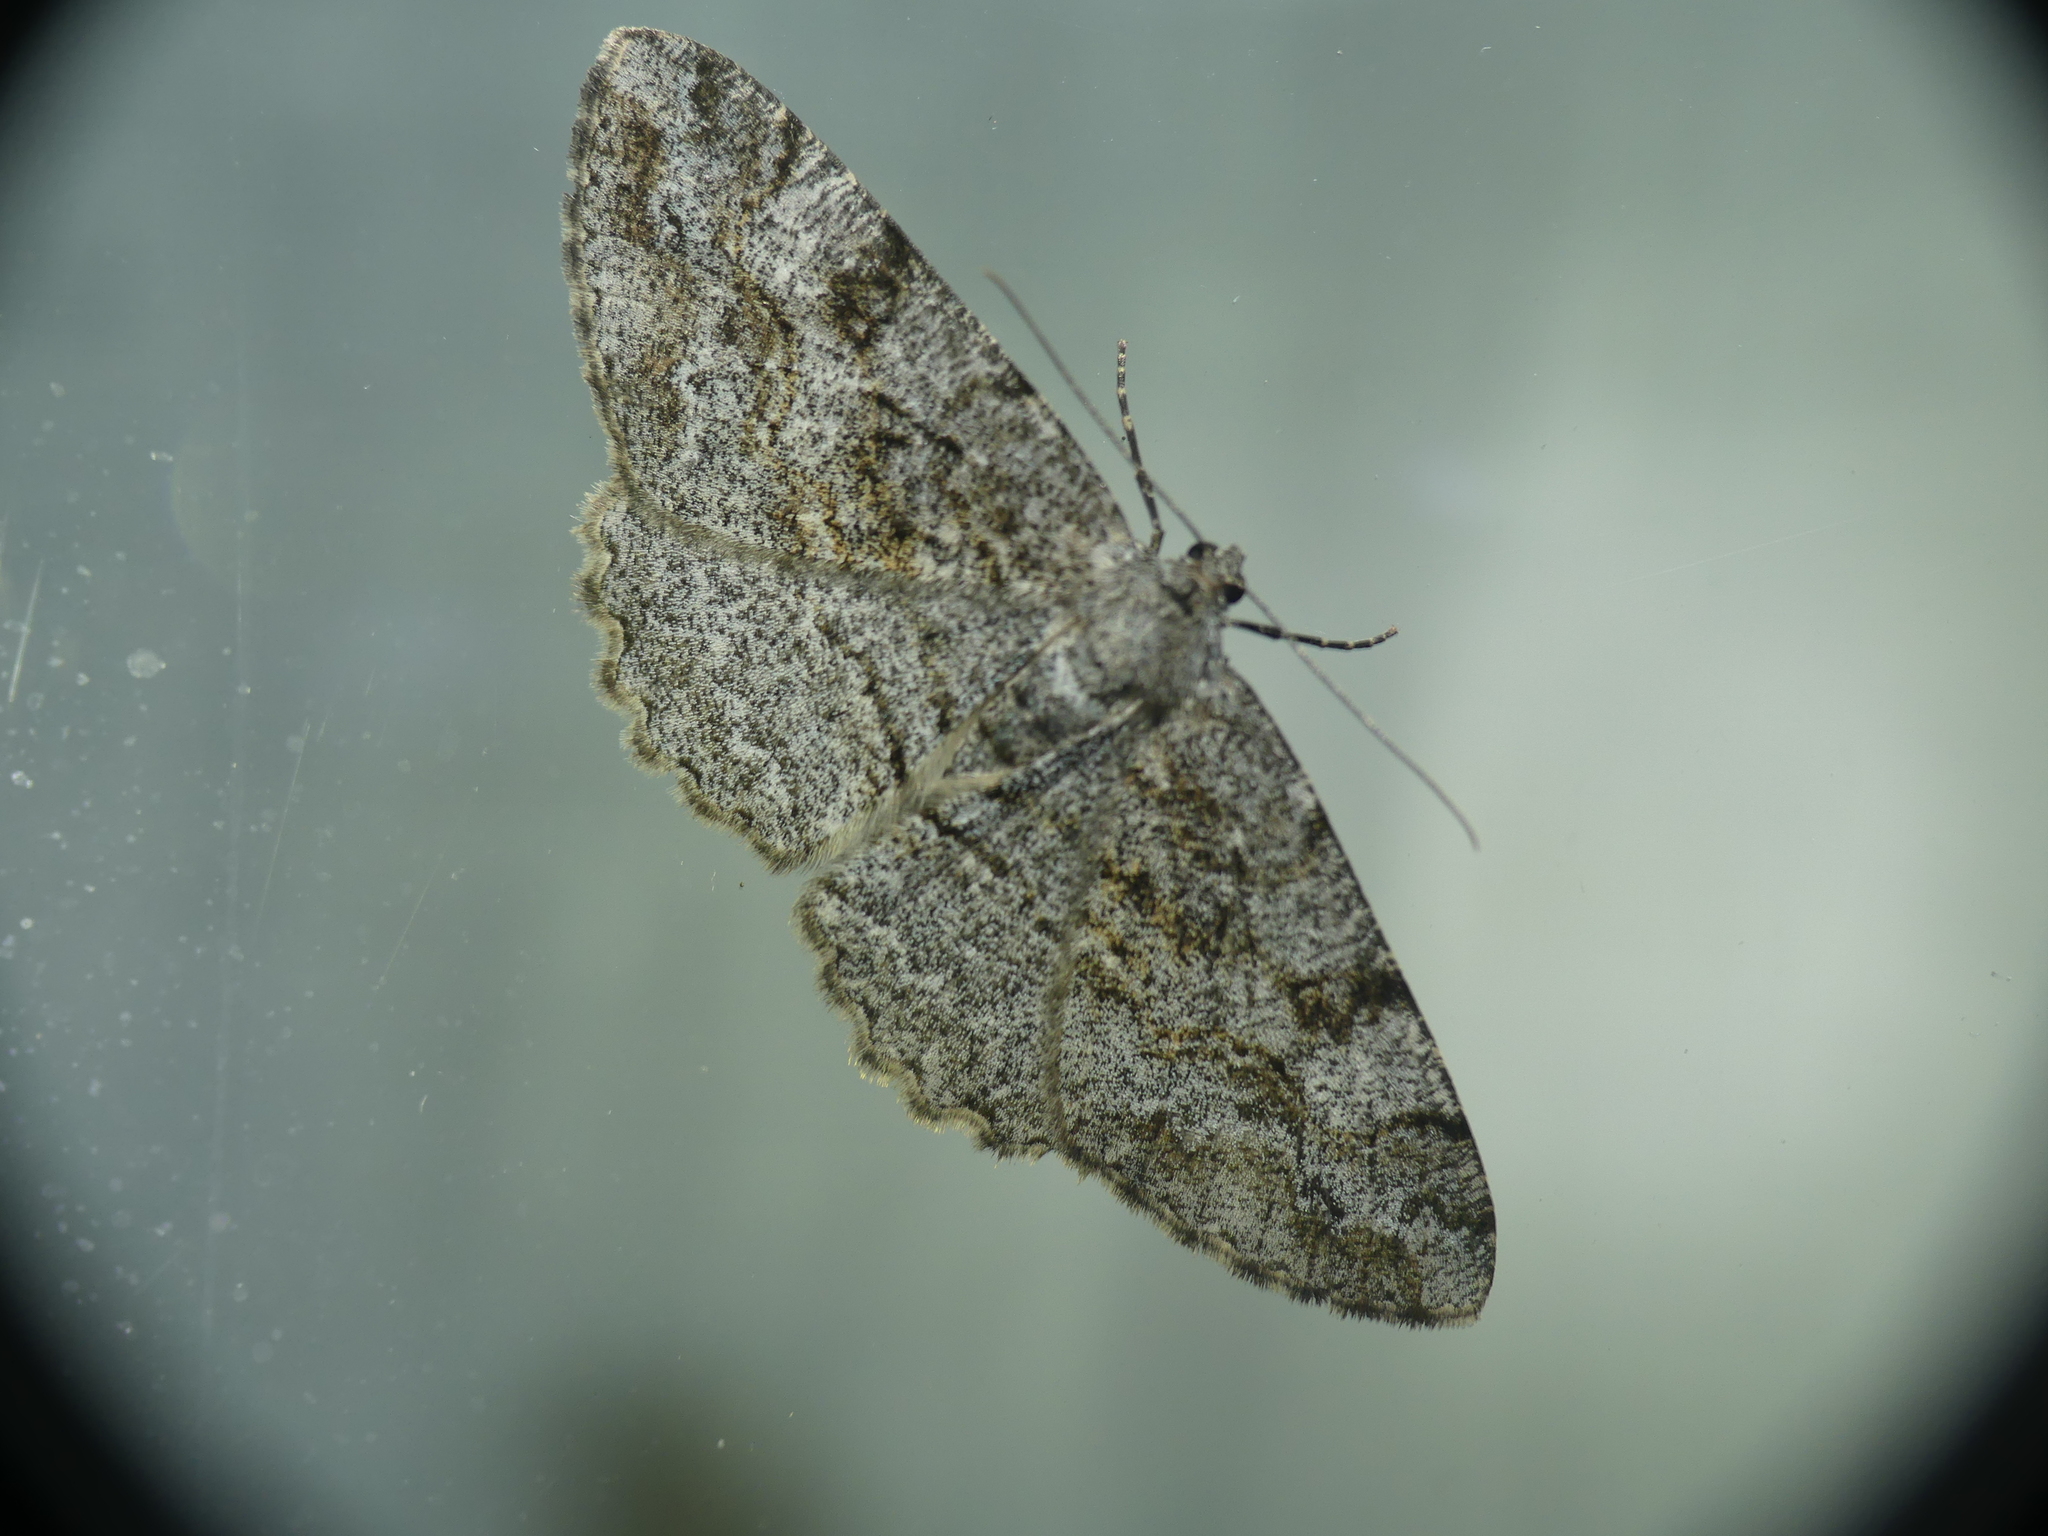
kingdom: Animalia
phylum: Arthropoda
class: Insecta
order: Lepidoptera
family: Geometridae
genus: Alcis
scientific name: Alcis repandata
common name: Mottled beauty
